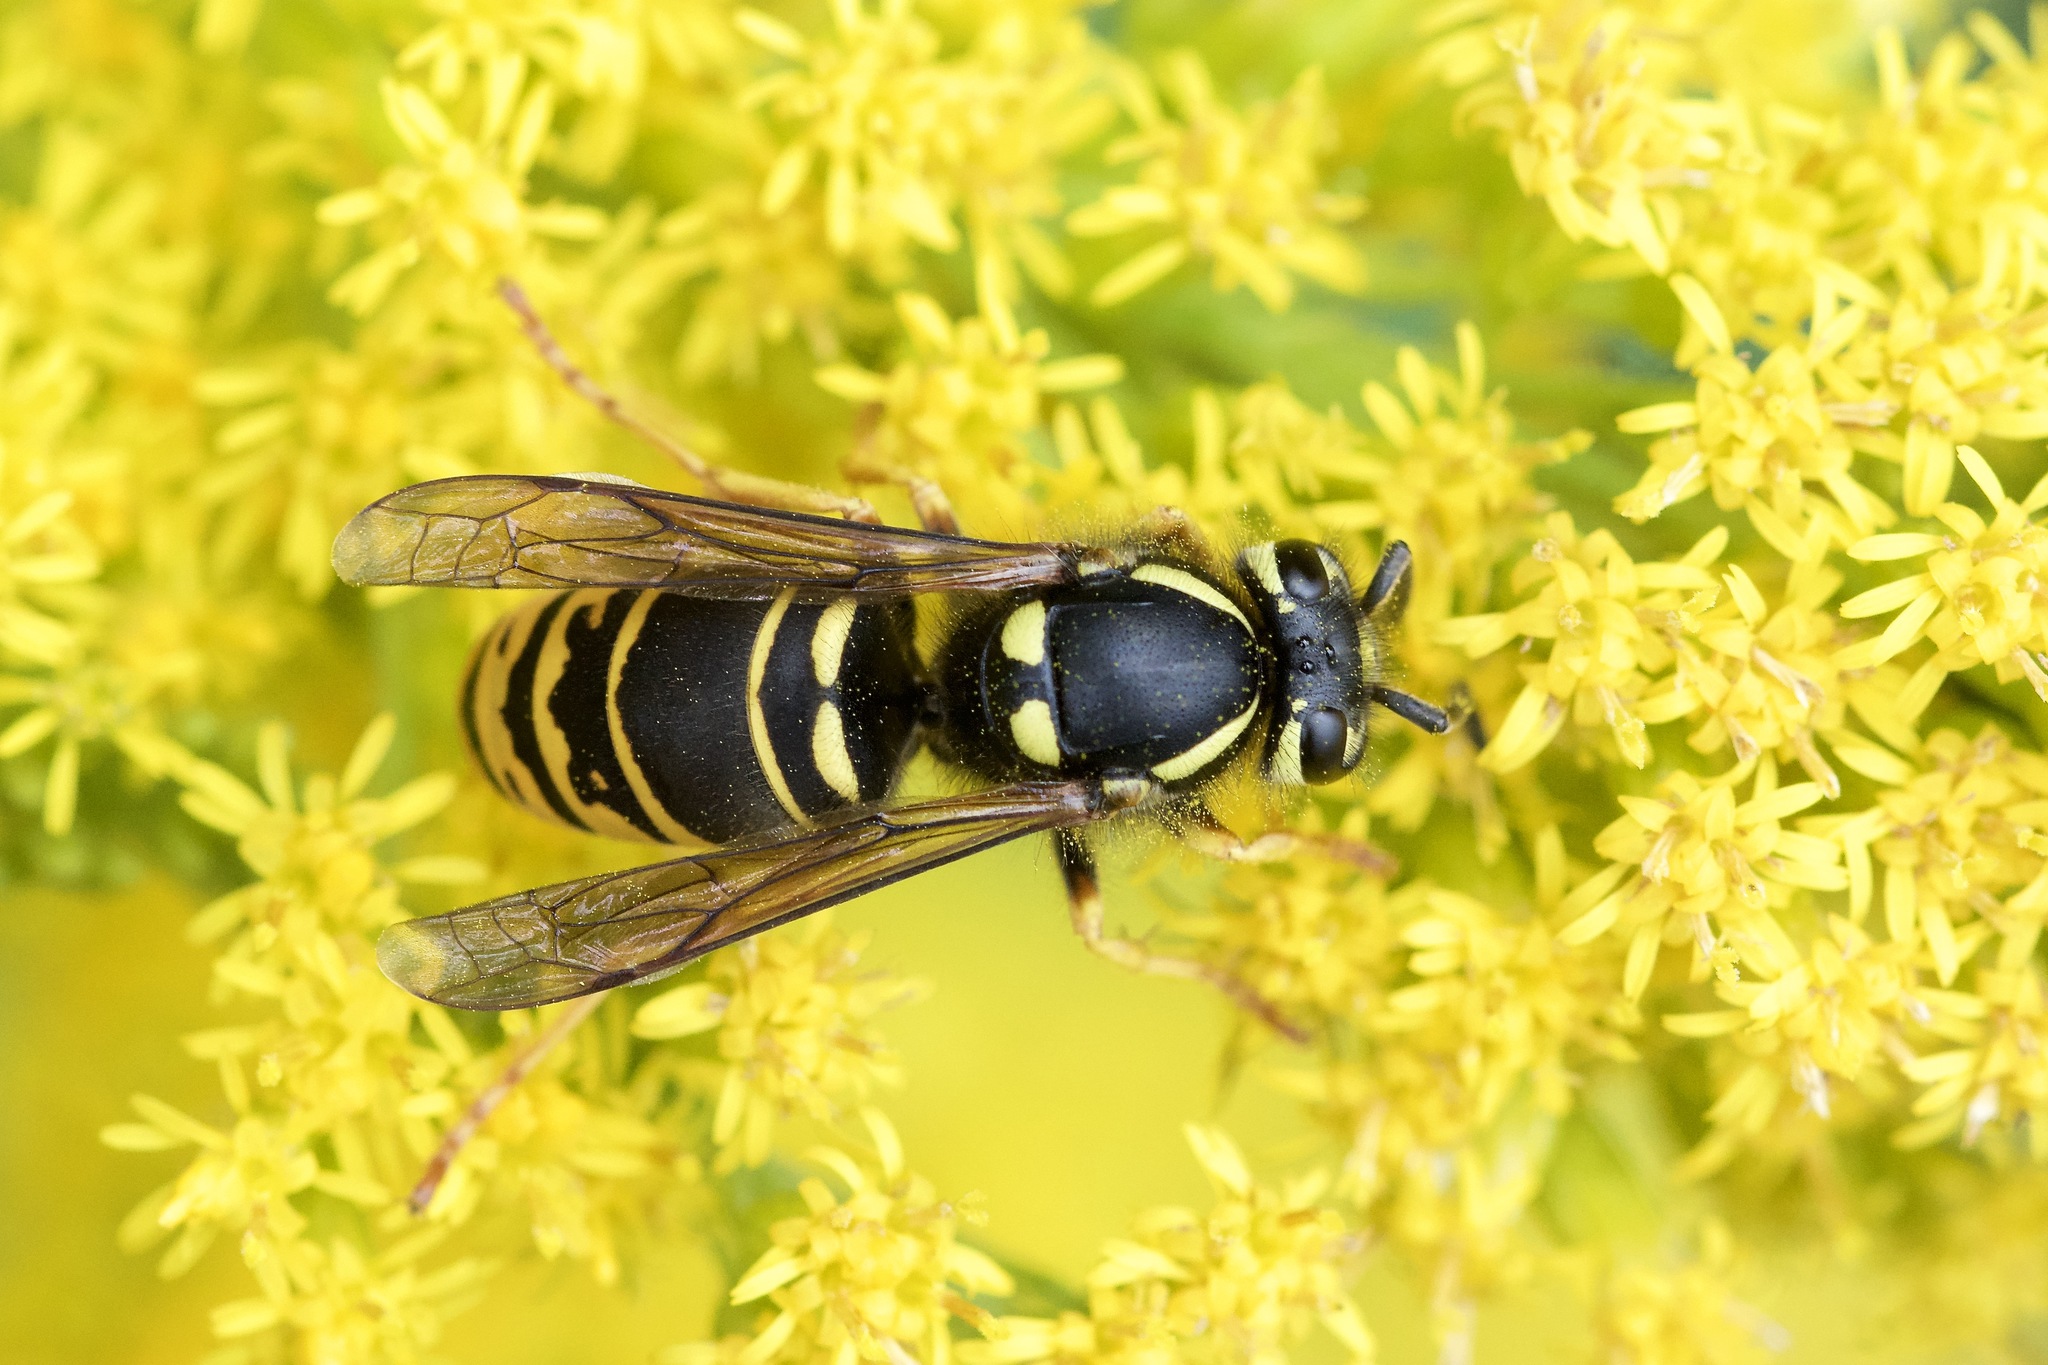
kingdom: Animalia
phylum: Arthropoda
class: Insecta
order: Hymenoptera
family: Vespidae
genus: Vespula
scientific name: Vespula vidua
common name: Widow yellowjacket
